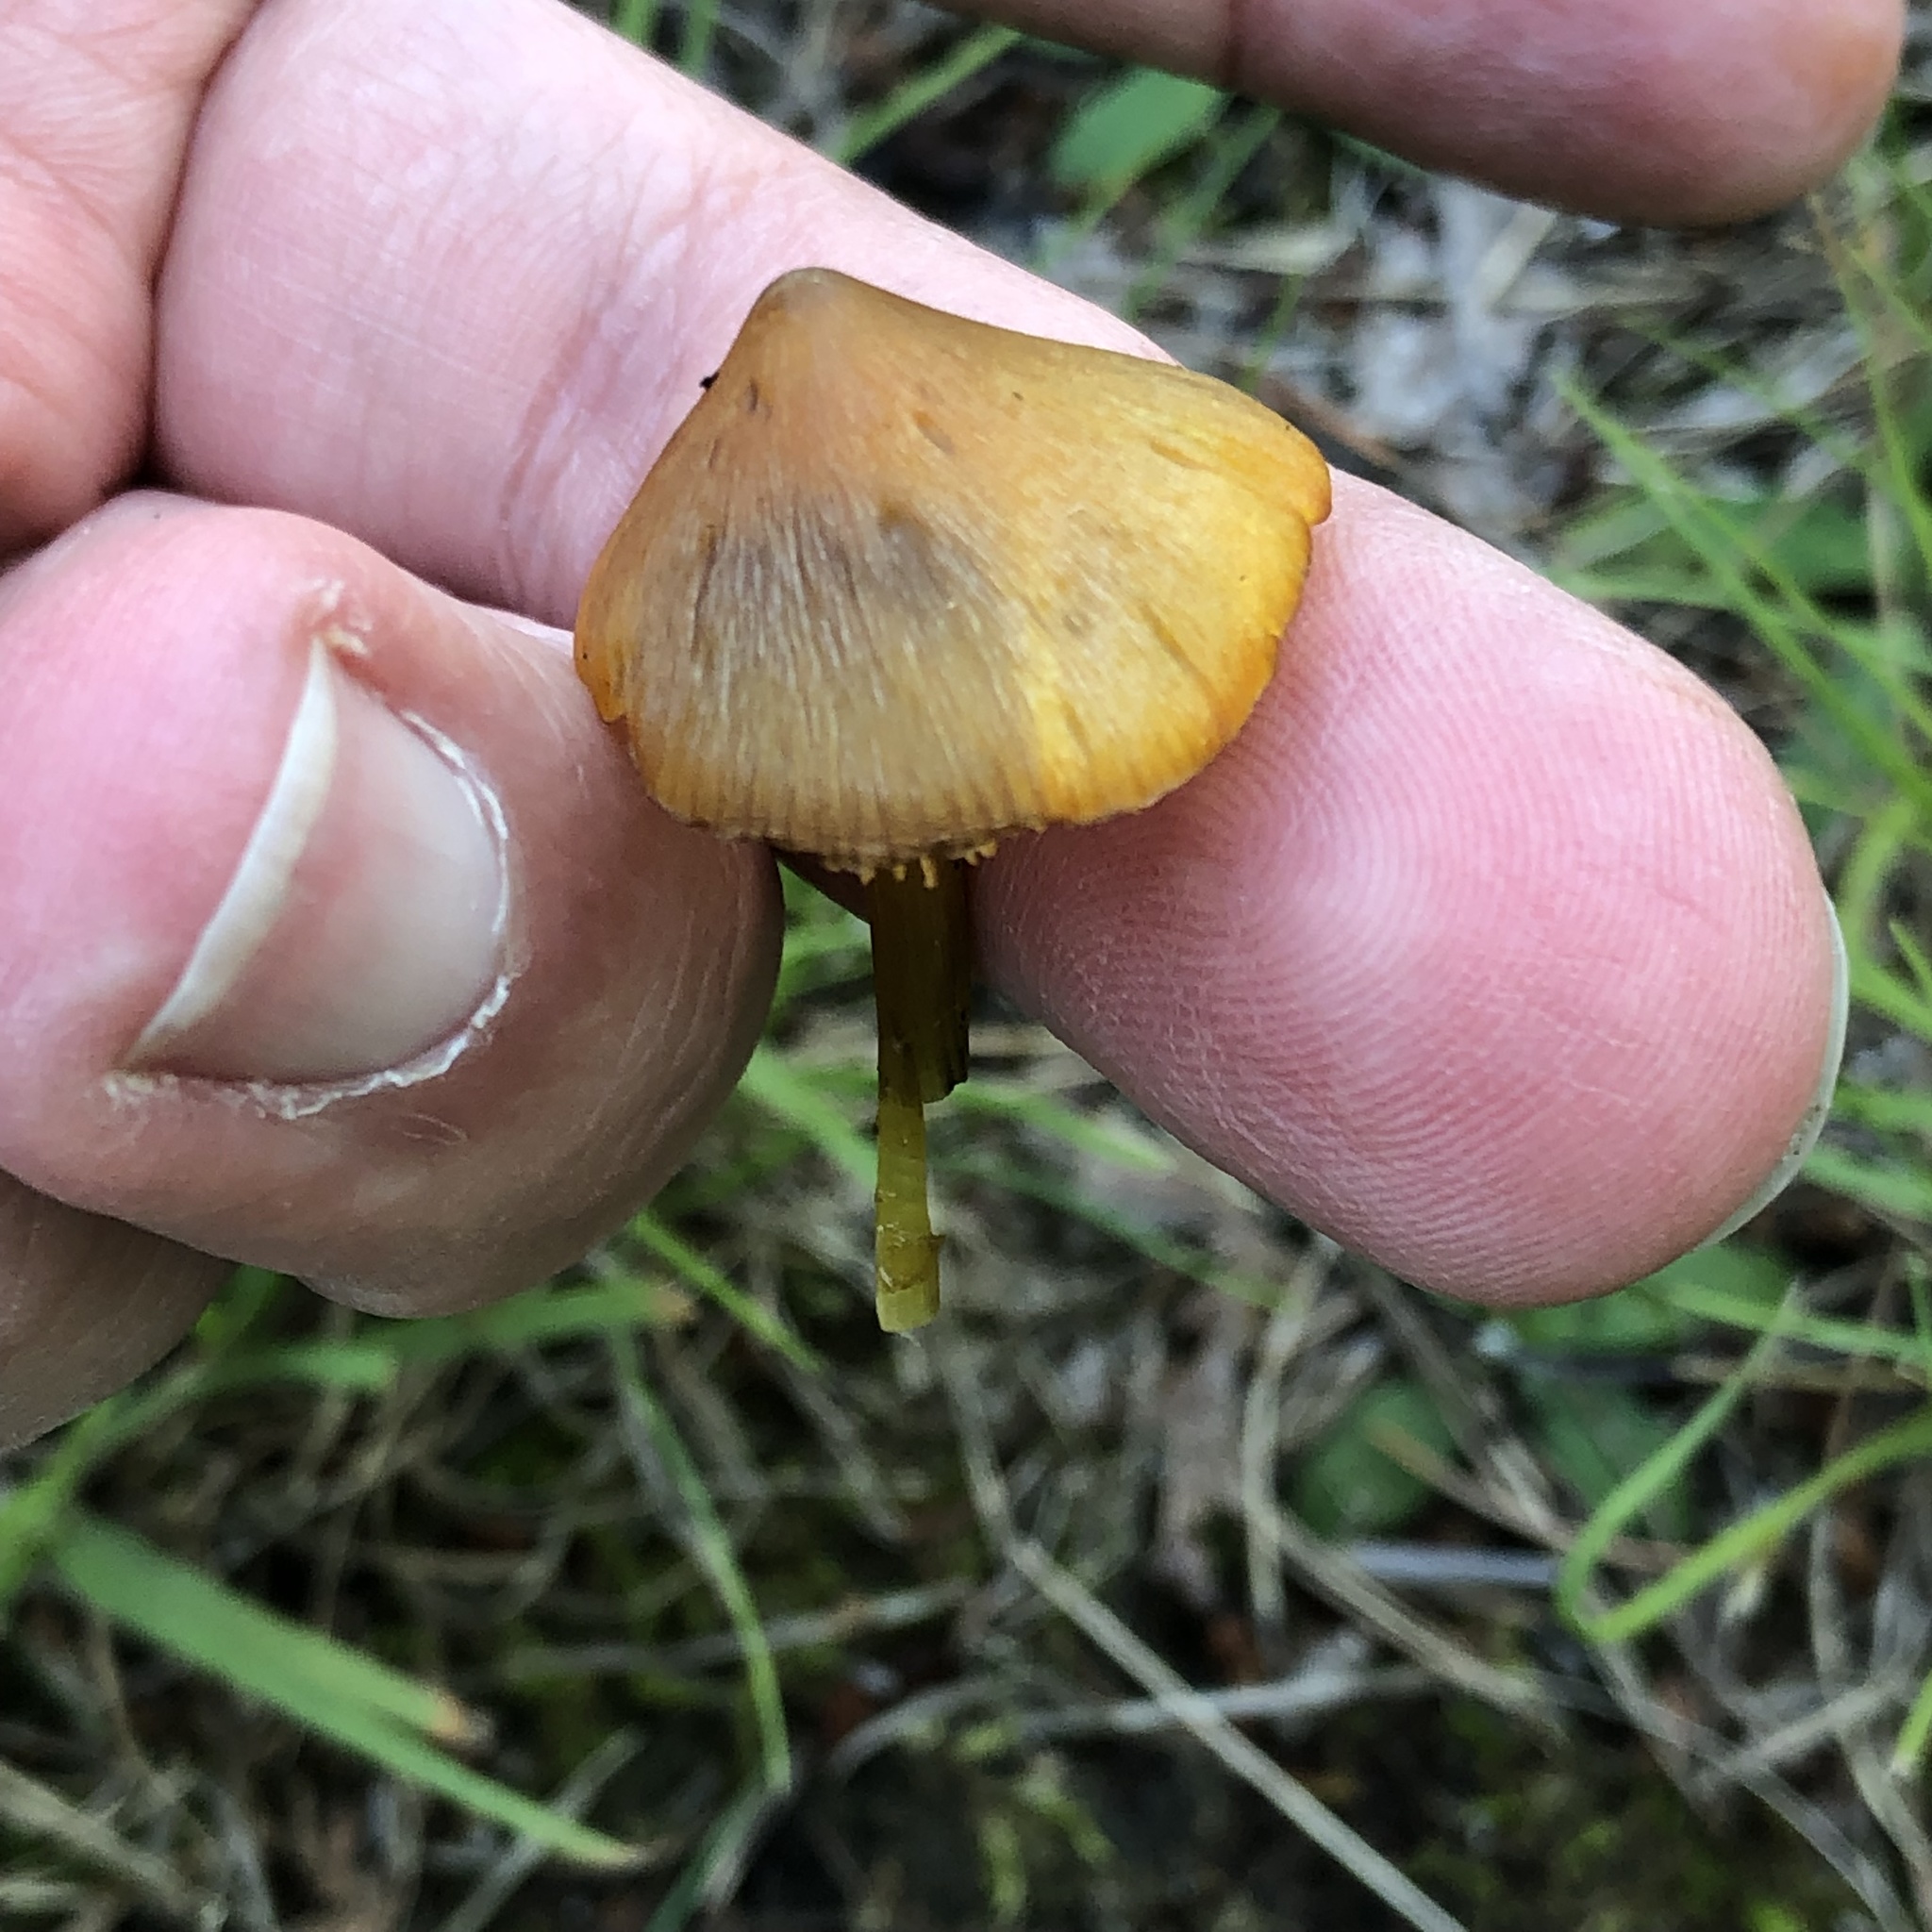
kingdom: Fungi
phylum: Basidiomycota
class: Agaricomycetes
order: Agaricales
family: Hygrophoraceae
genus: Hygrocybe
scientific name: Hygrocybe conica
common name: Blackening wax-cap
